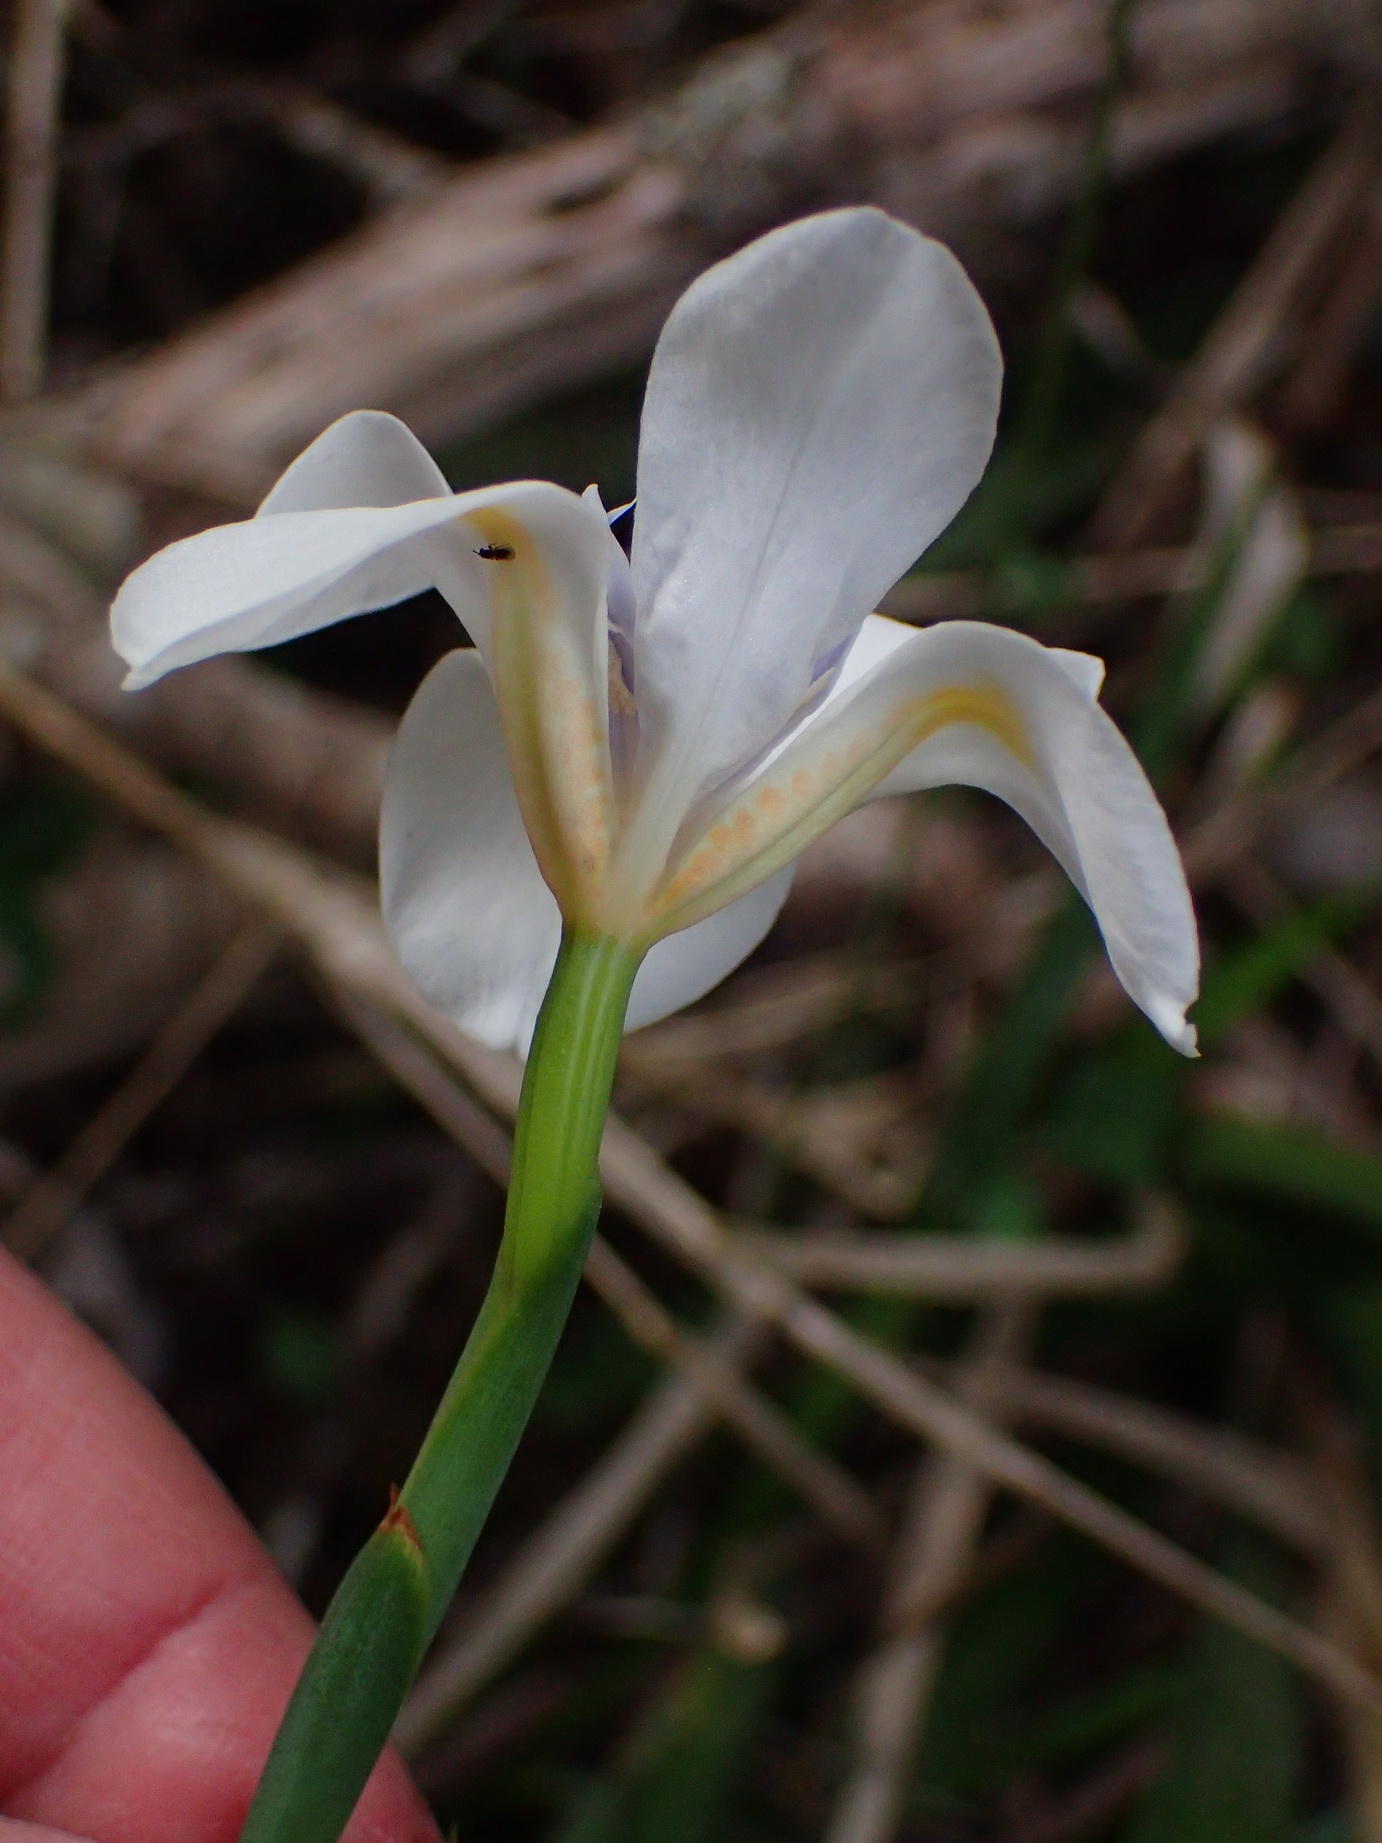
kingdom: Plantae
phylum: Tracheophyta
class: Liliopsida
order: Asparagales
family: Iridaceae
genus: Dietes
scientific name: Dietes iridioides
